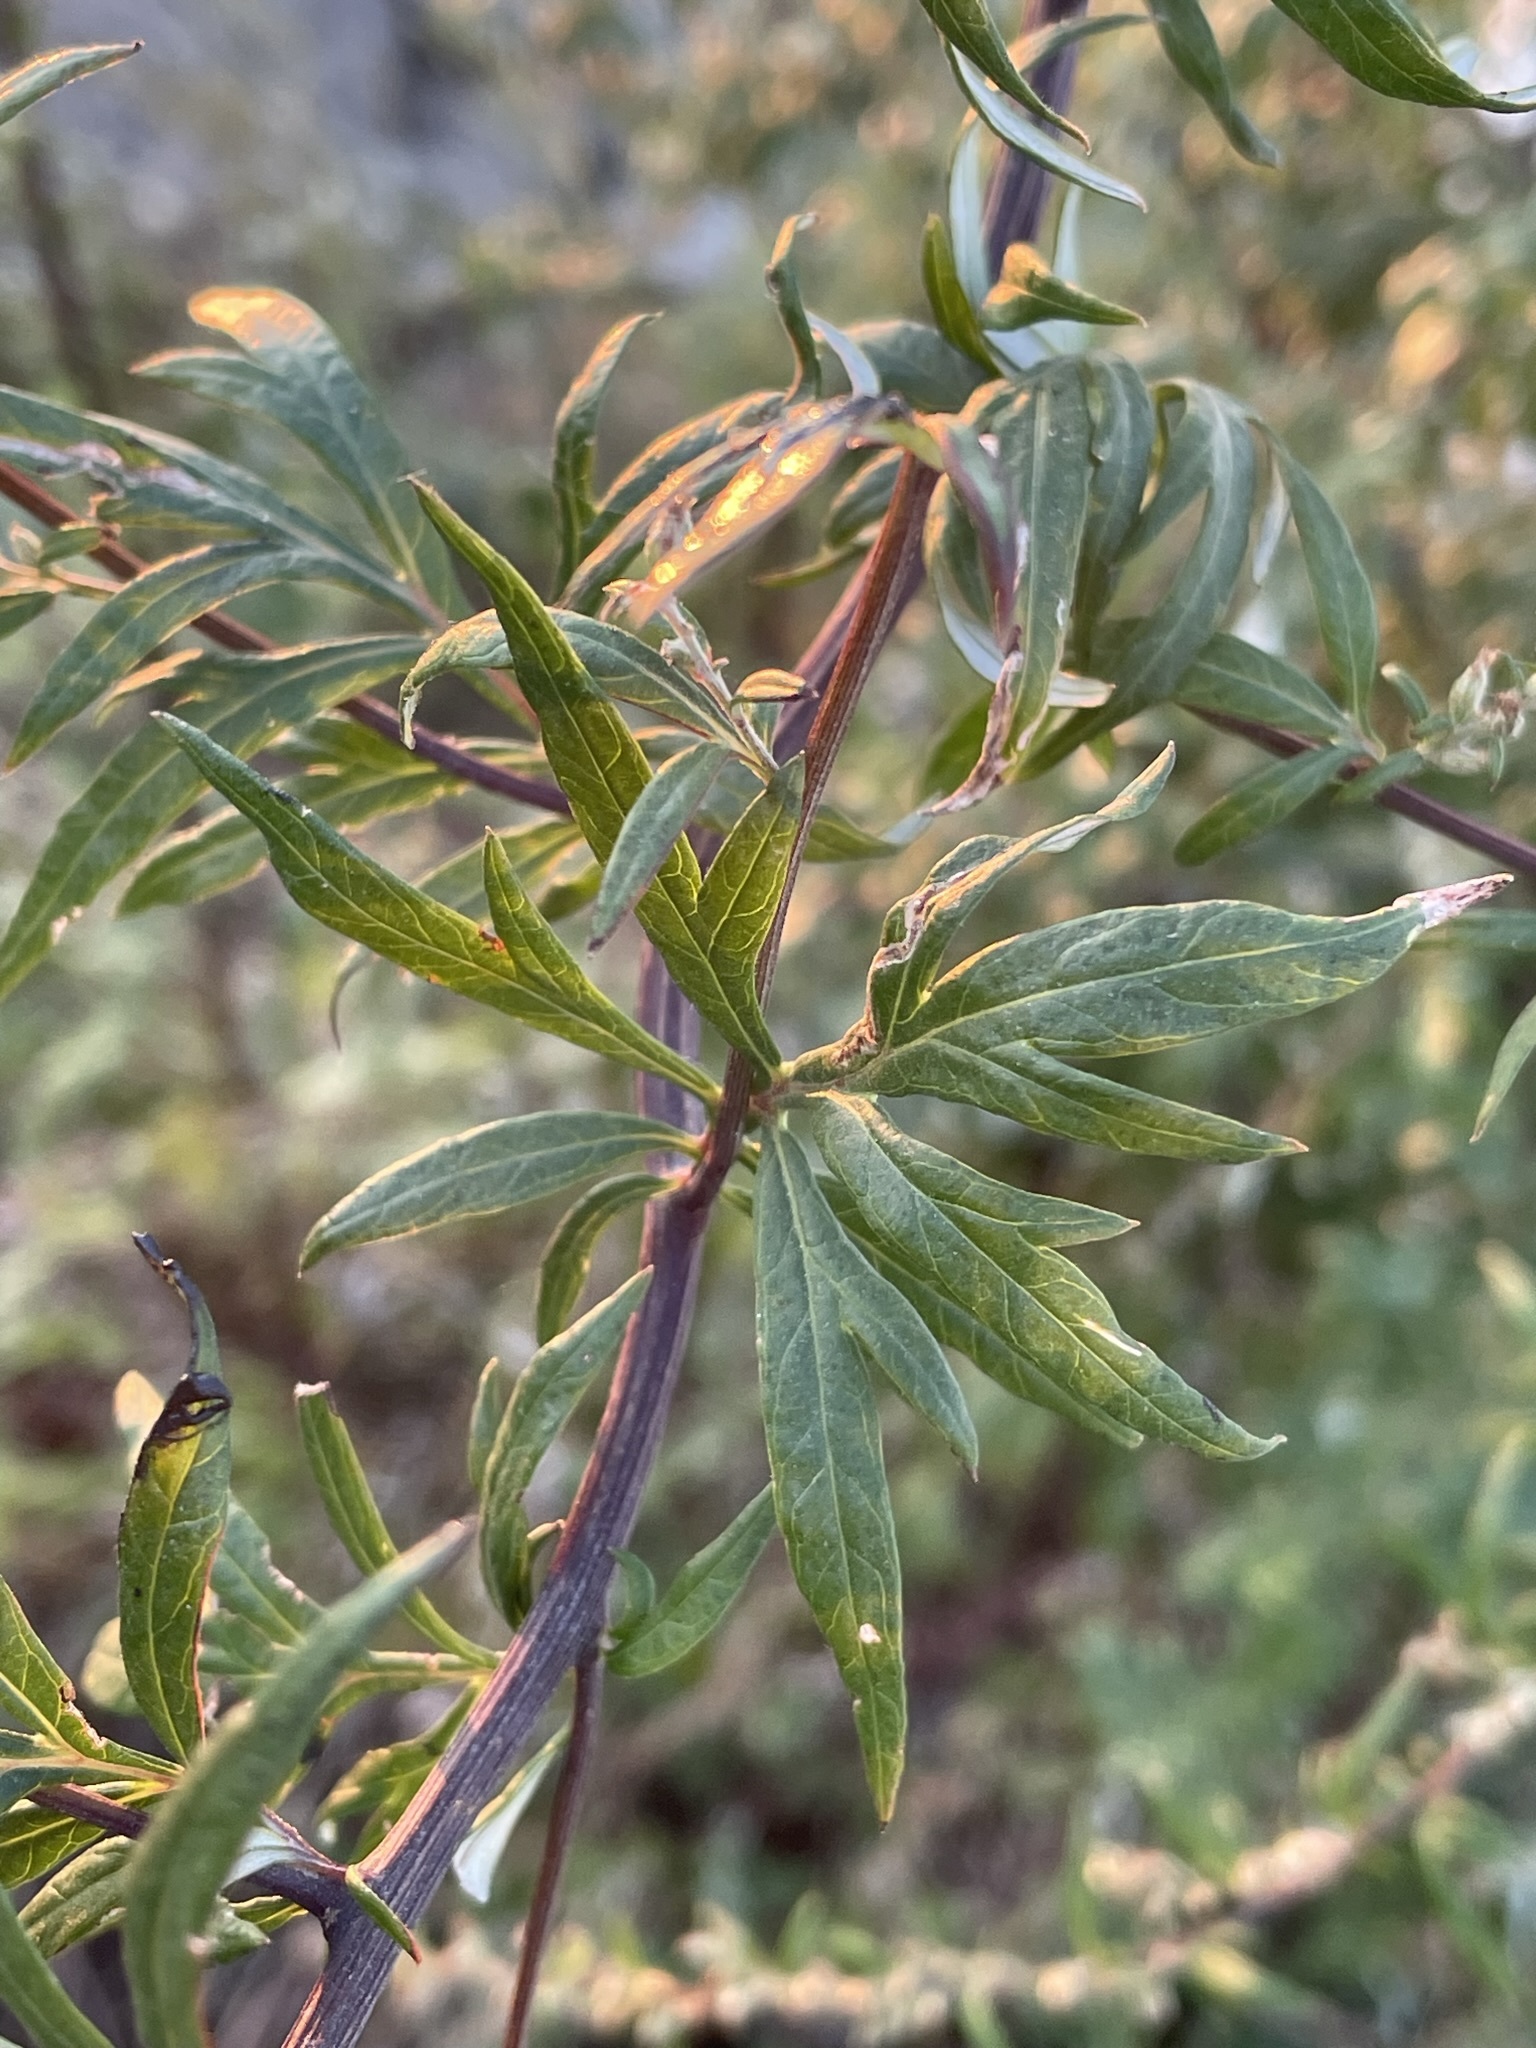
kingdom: Plantae
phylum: Tracheophyta
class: Magnoliopsida
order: Asterales
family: Asteraceae
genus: Artemisia
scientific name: Artemisia vulgaris
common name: Mugwort
